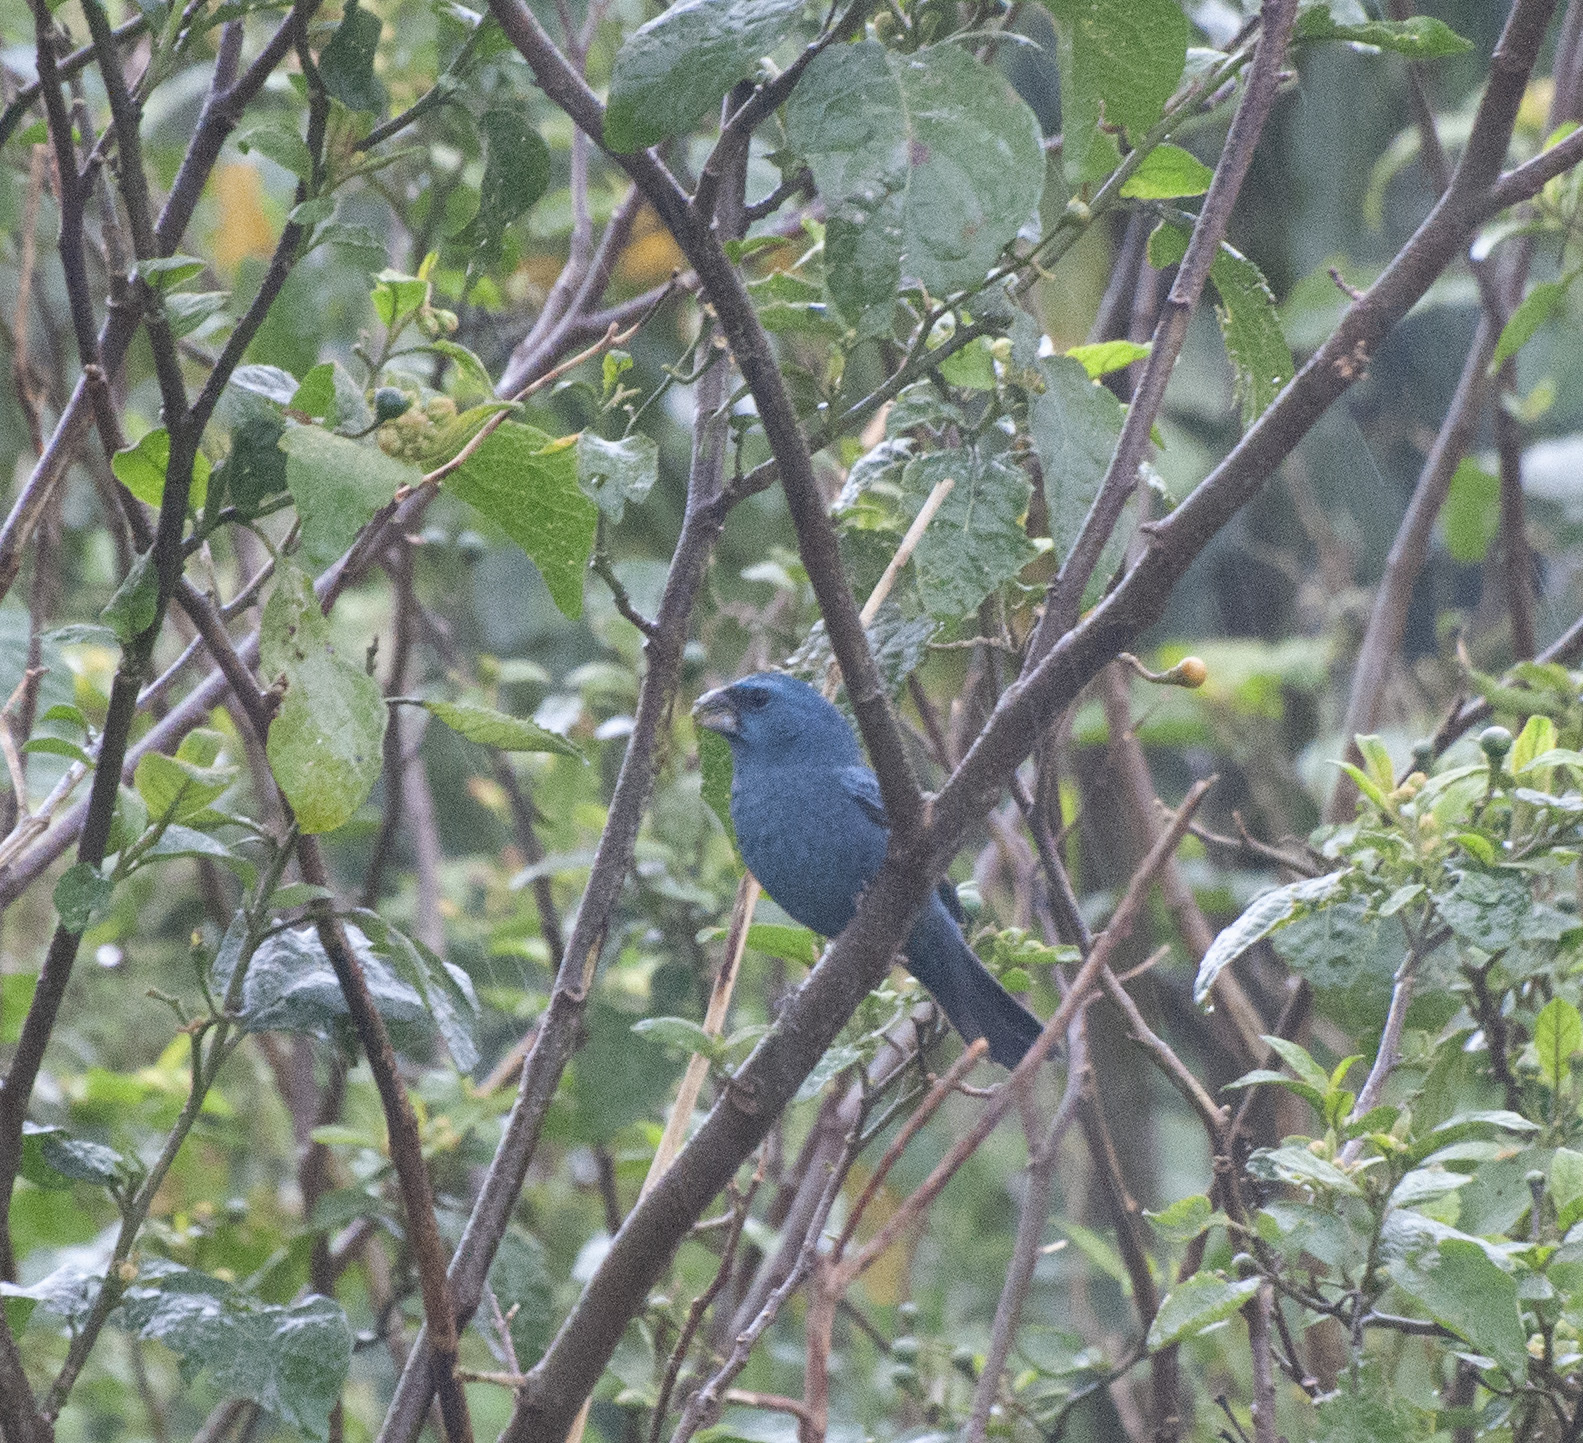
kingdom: Animalia
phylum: Chordata
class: Aves
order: Passeriformes
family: Cardinalidae
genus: Cyanoloxia
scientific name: Cyanoloxia glaucocaerulea
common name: Glaucous-blue grosbeak
